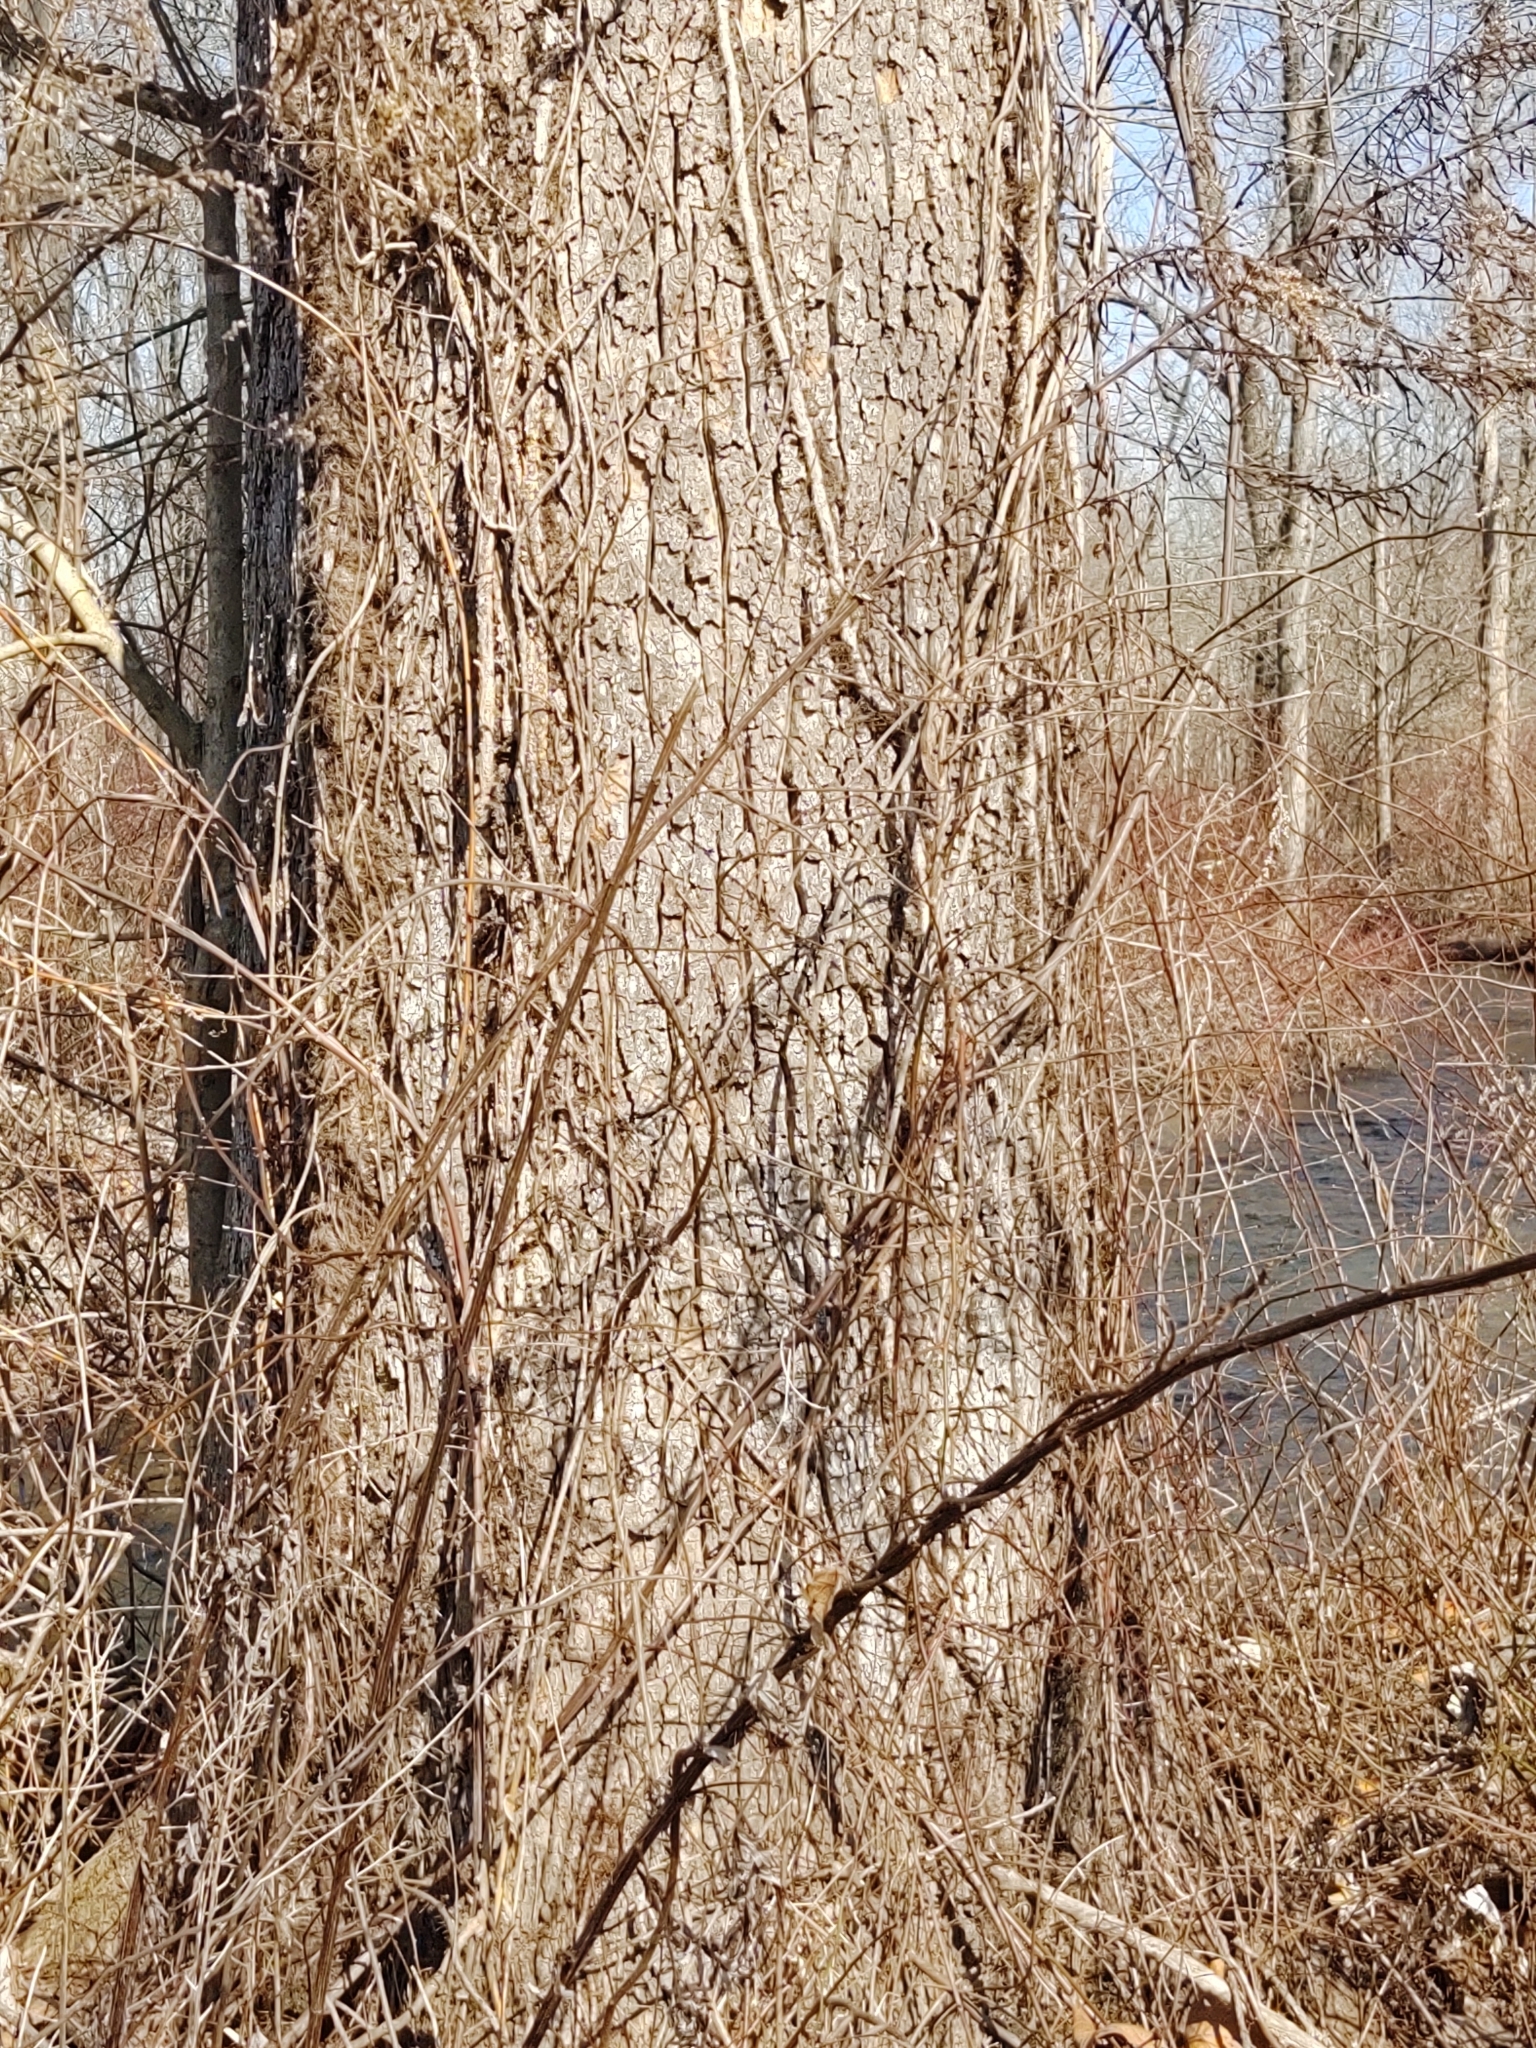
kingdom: Plantae
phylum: Tracheophyta
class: Magnoliopsida
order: Proteales
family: Platanaceae
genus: Platanus
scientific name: Platanus occidentalis
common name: American sycamore
